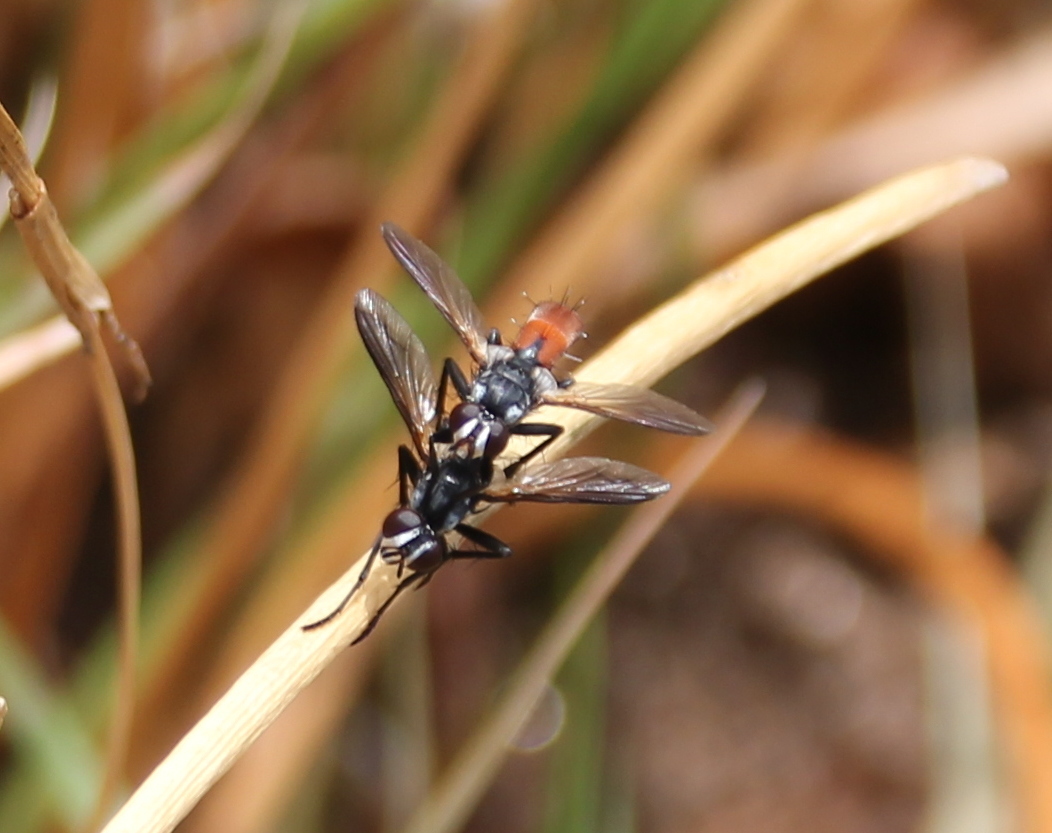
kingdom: Animalia
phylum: Arthropoda
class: Insecta
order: Diptera
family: Tachinidae
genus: Cylindromyia
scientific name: Cylindromyia intermedia
